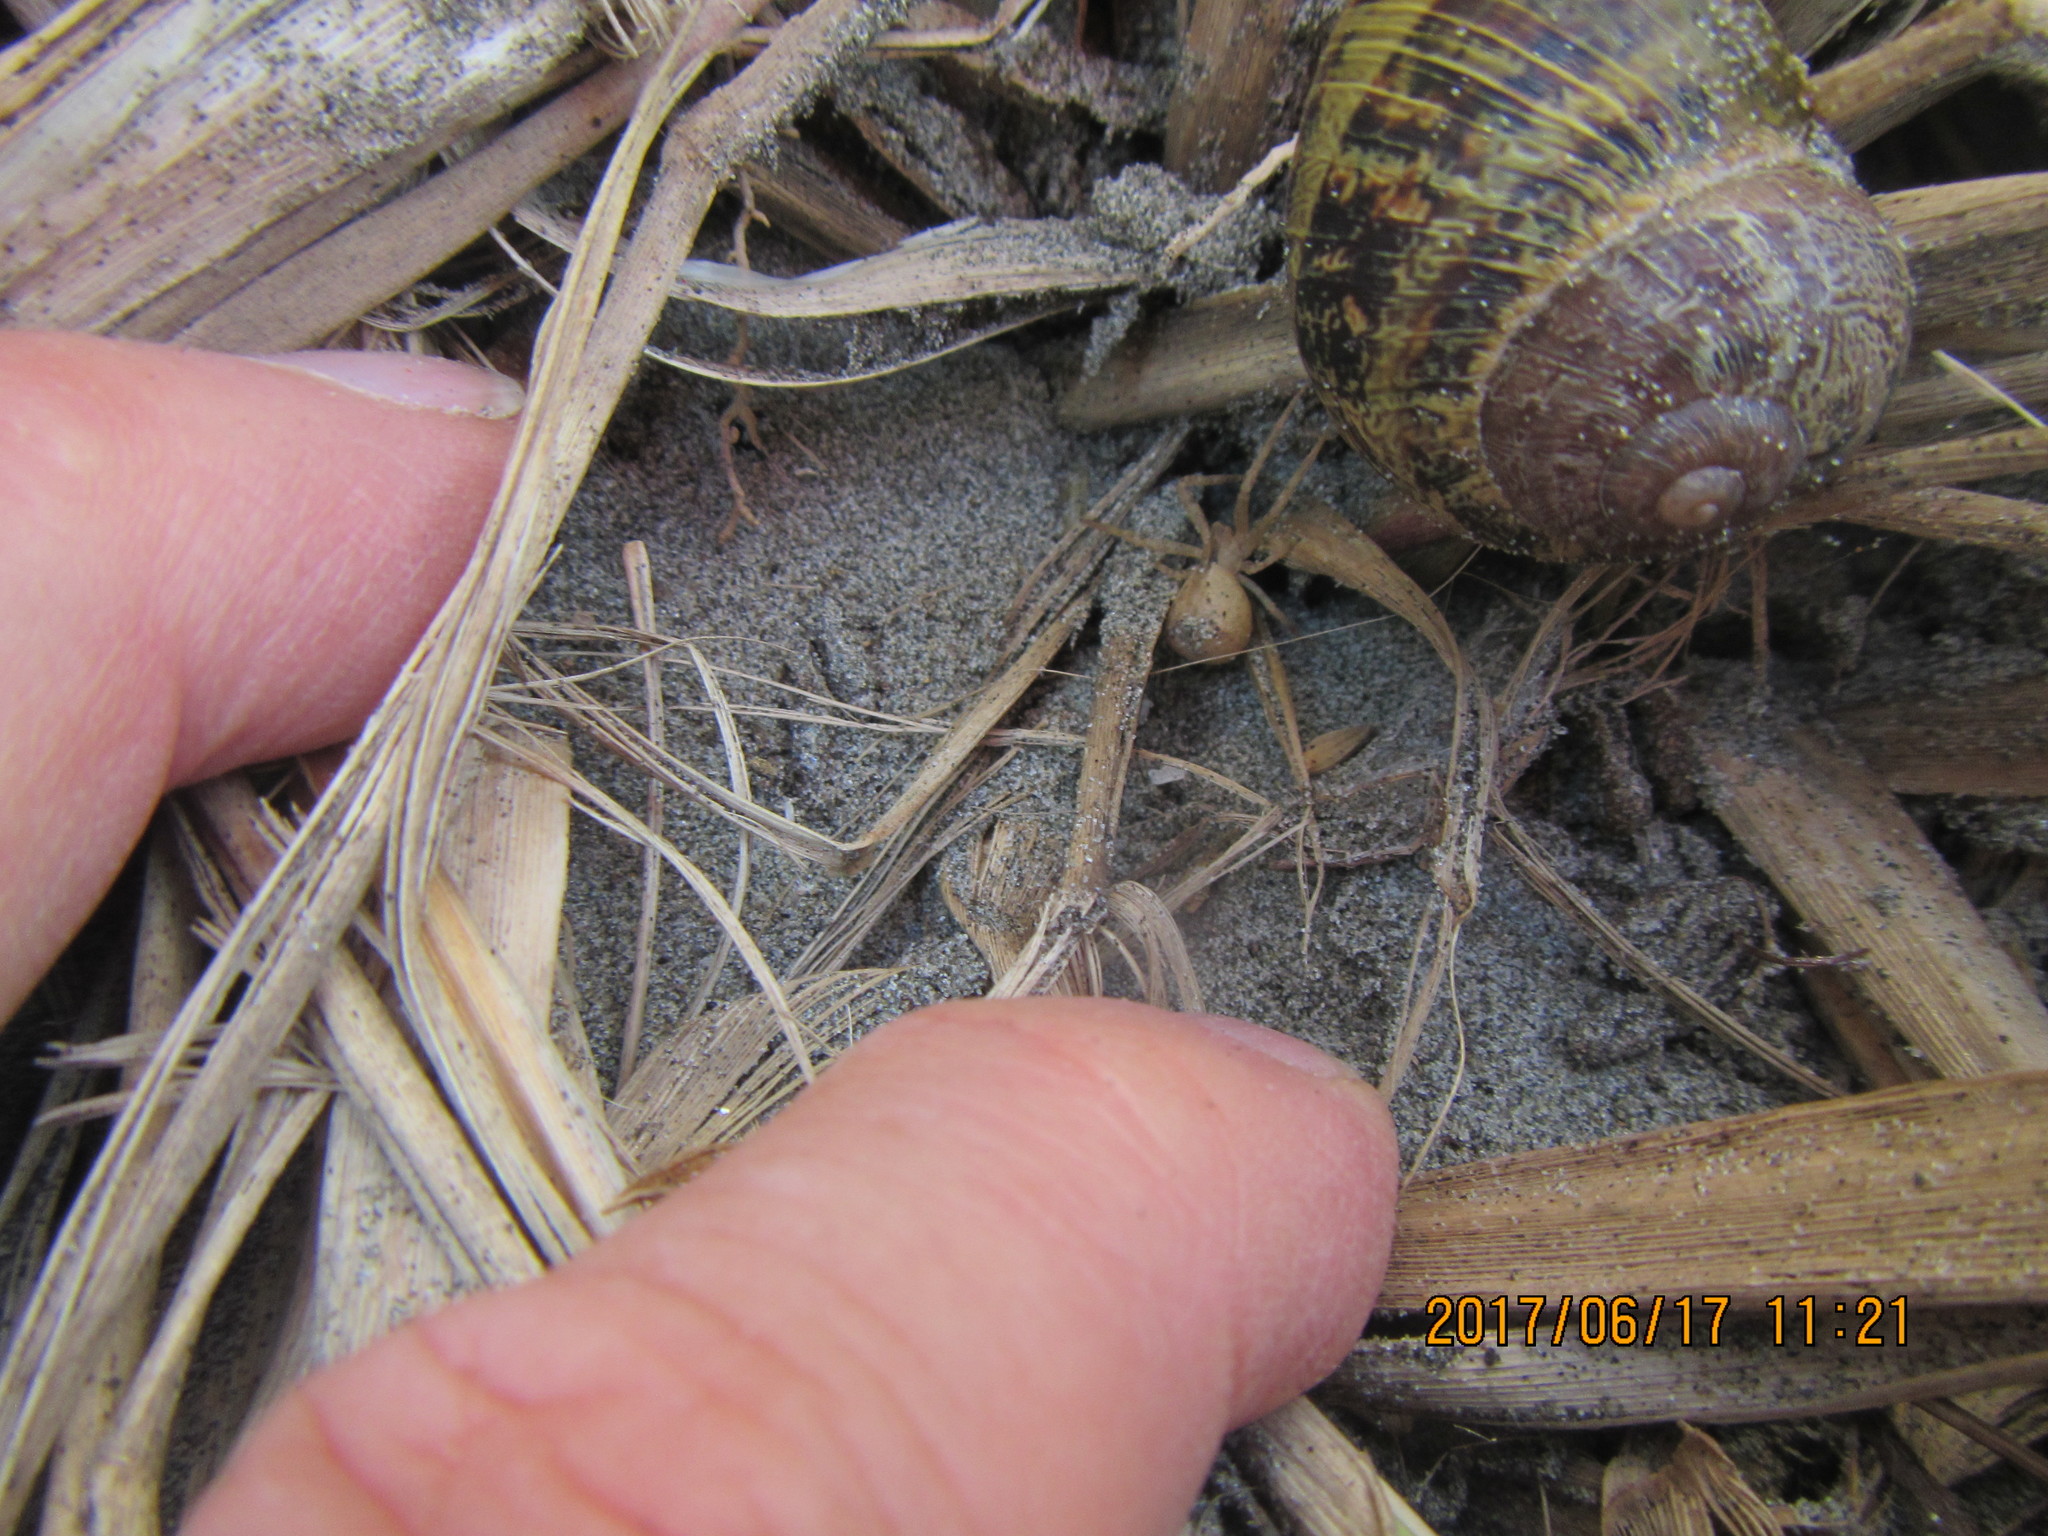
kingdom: Animalia
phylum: Mollusca
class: Gastropoda
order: Stylommatophora
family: Helicidae
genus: Cornu
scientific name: Cornu aspersum
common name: Brown garden snail
